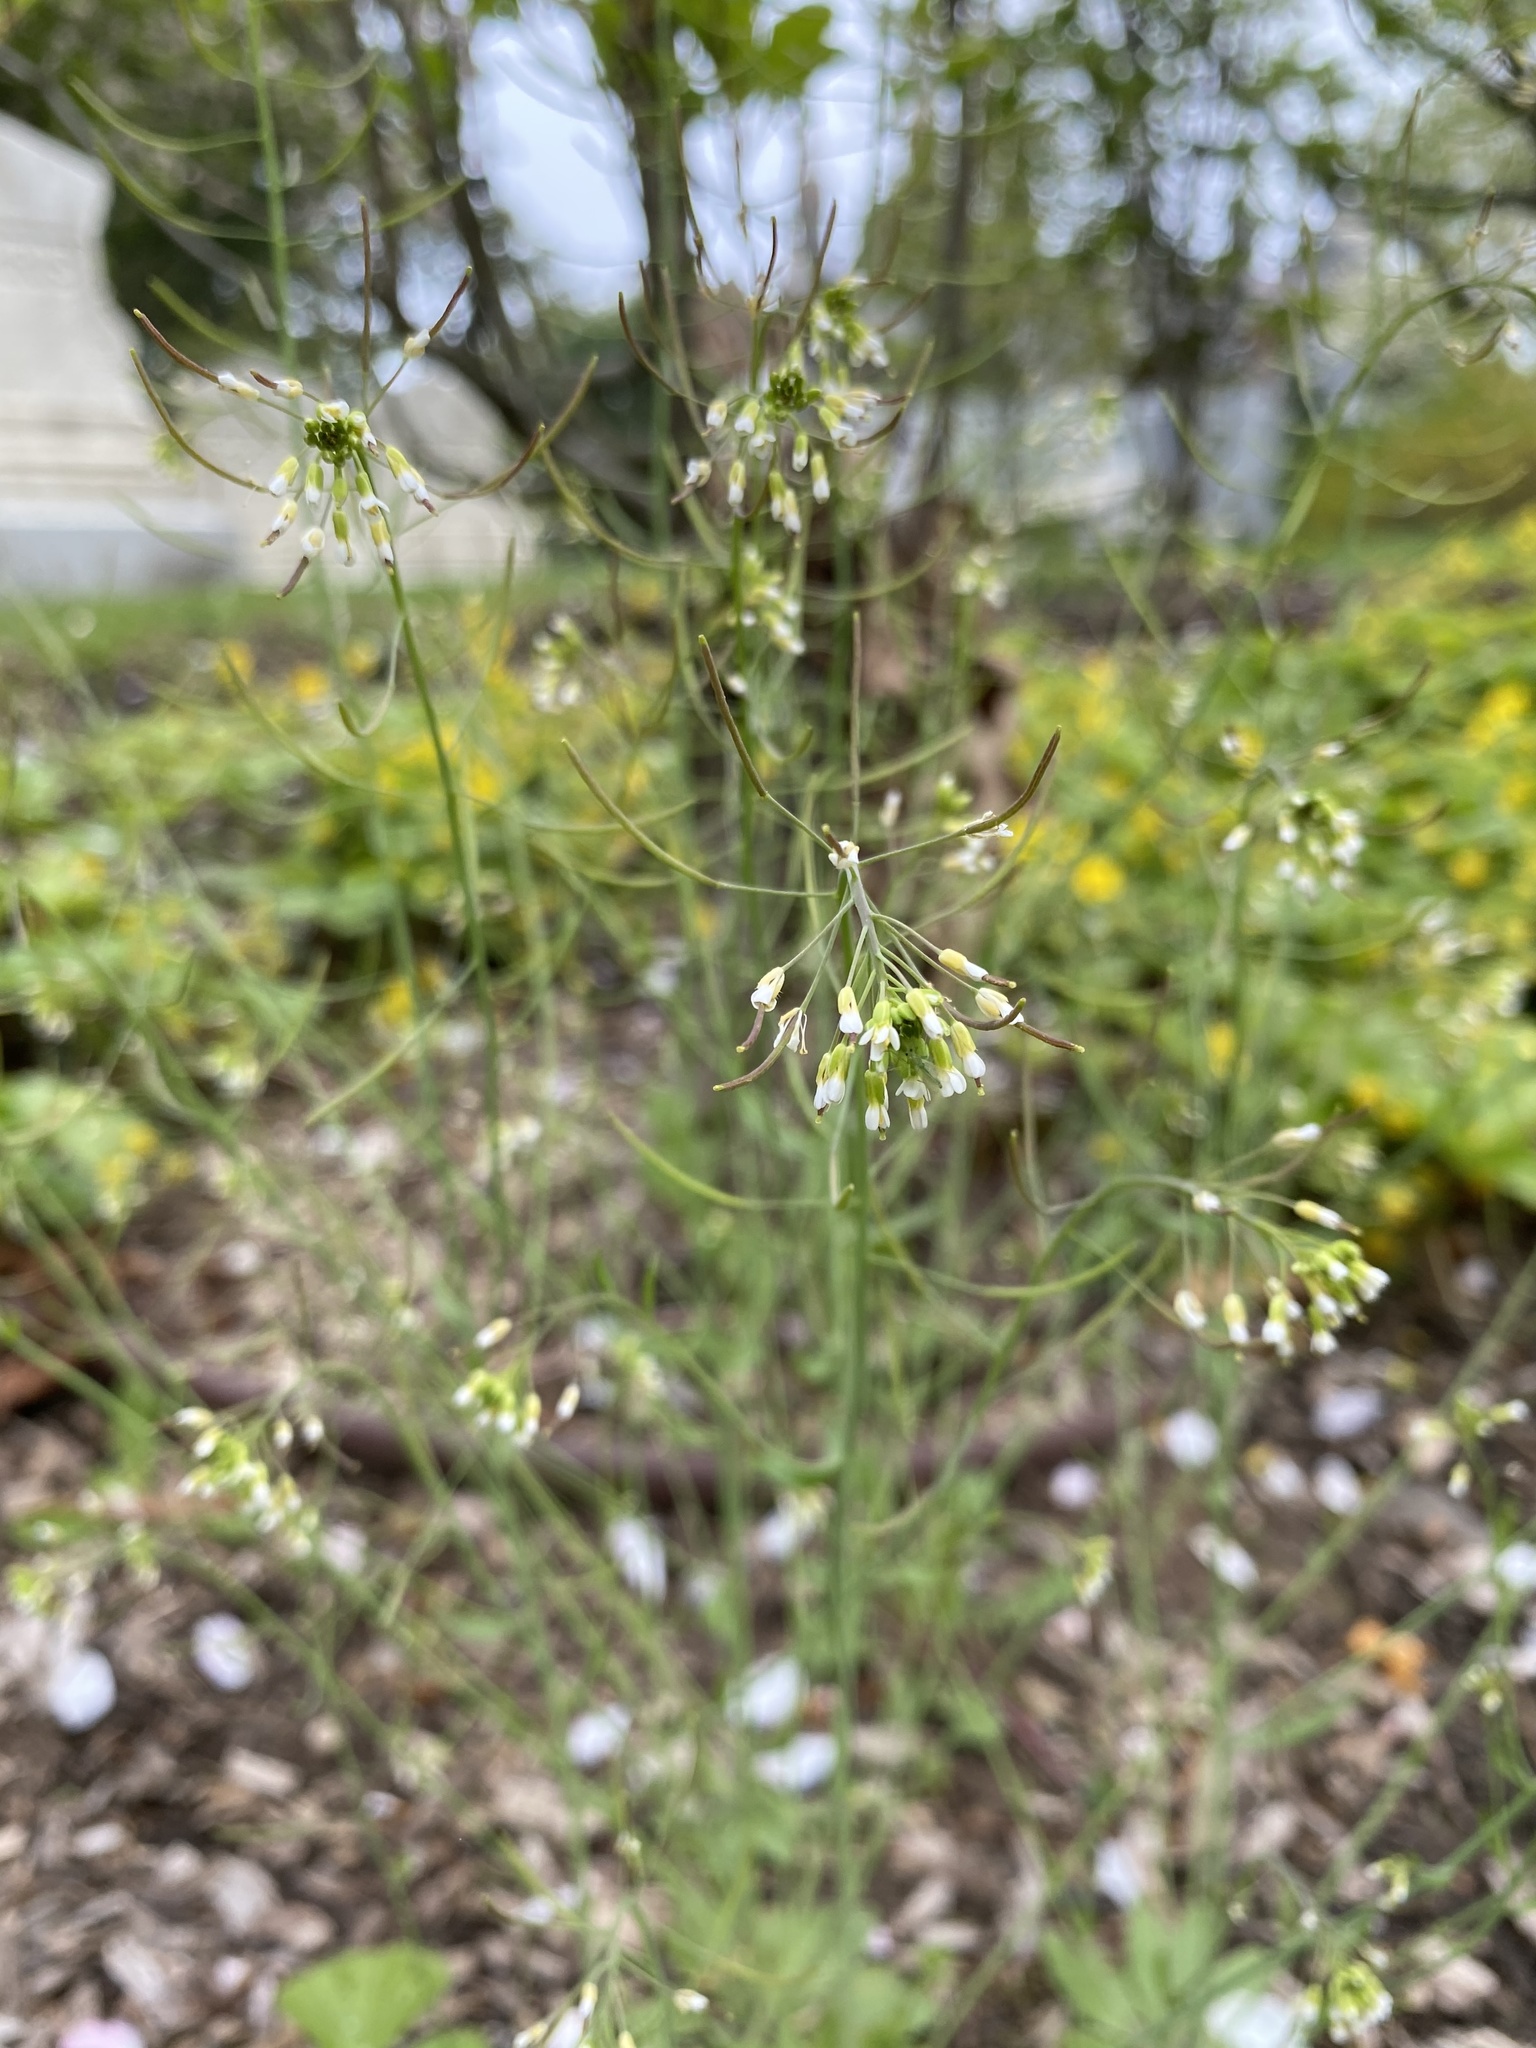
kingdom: Plantae
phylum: Tracheophyta
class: Magnoliopsida
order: Brassicales
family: Brassicaceae
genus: Arabidopsis
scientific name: Arabidopsis thaliana
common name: Thale cress
